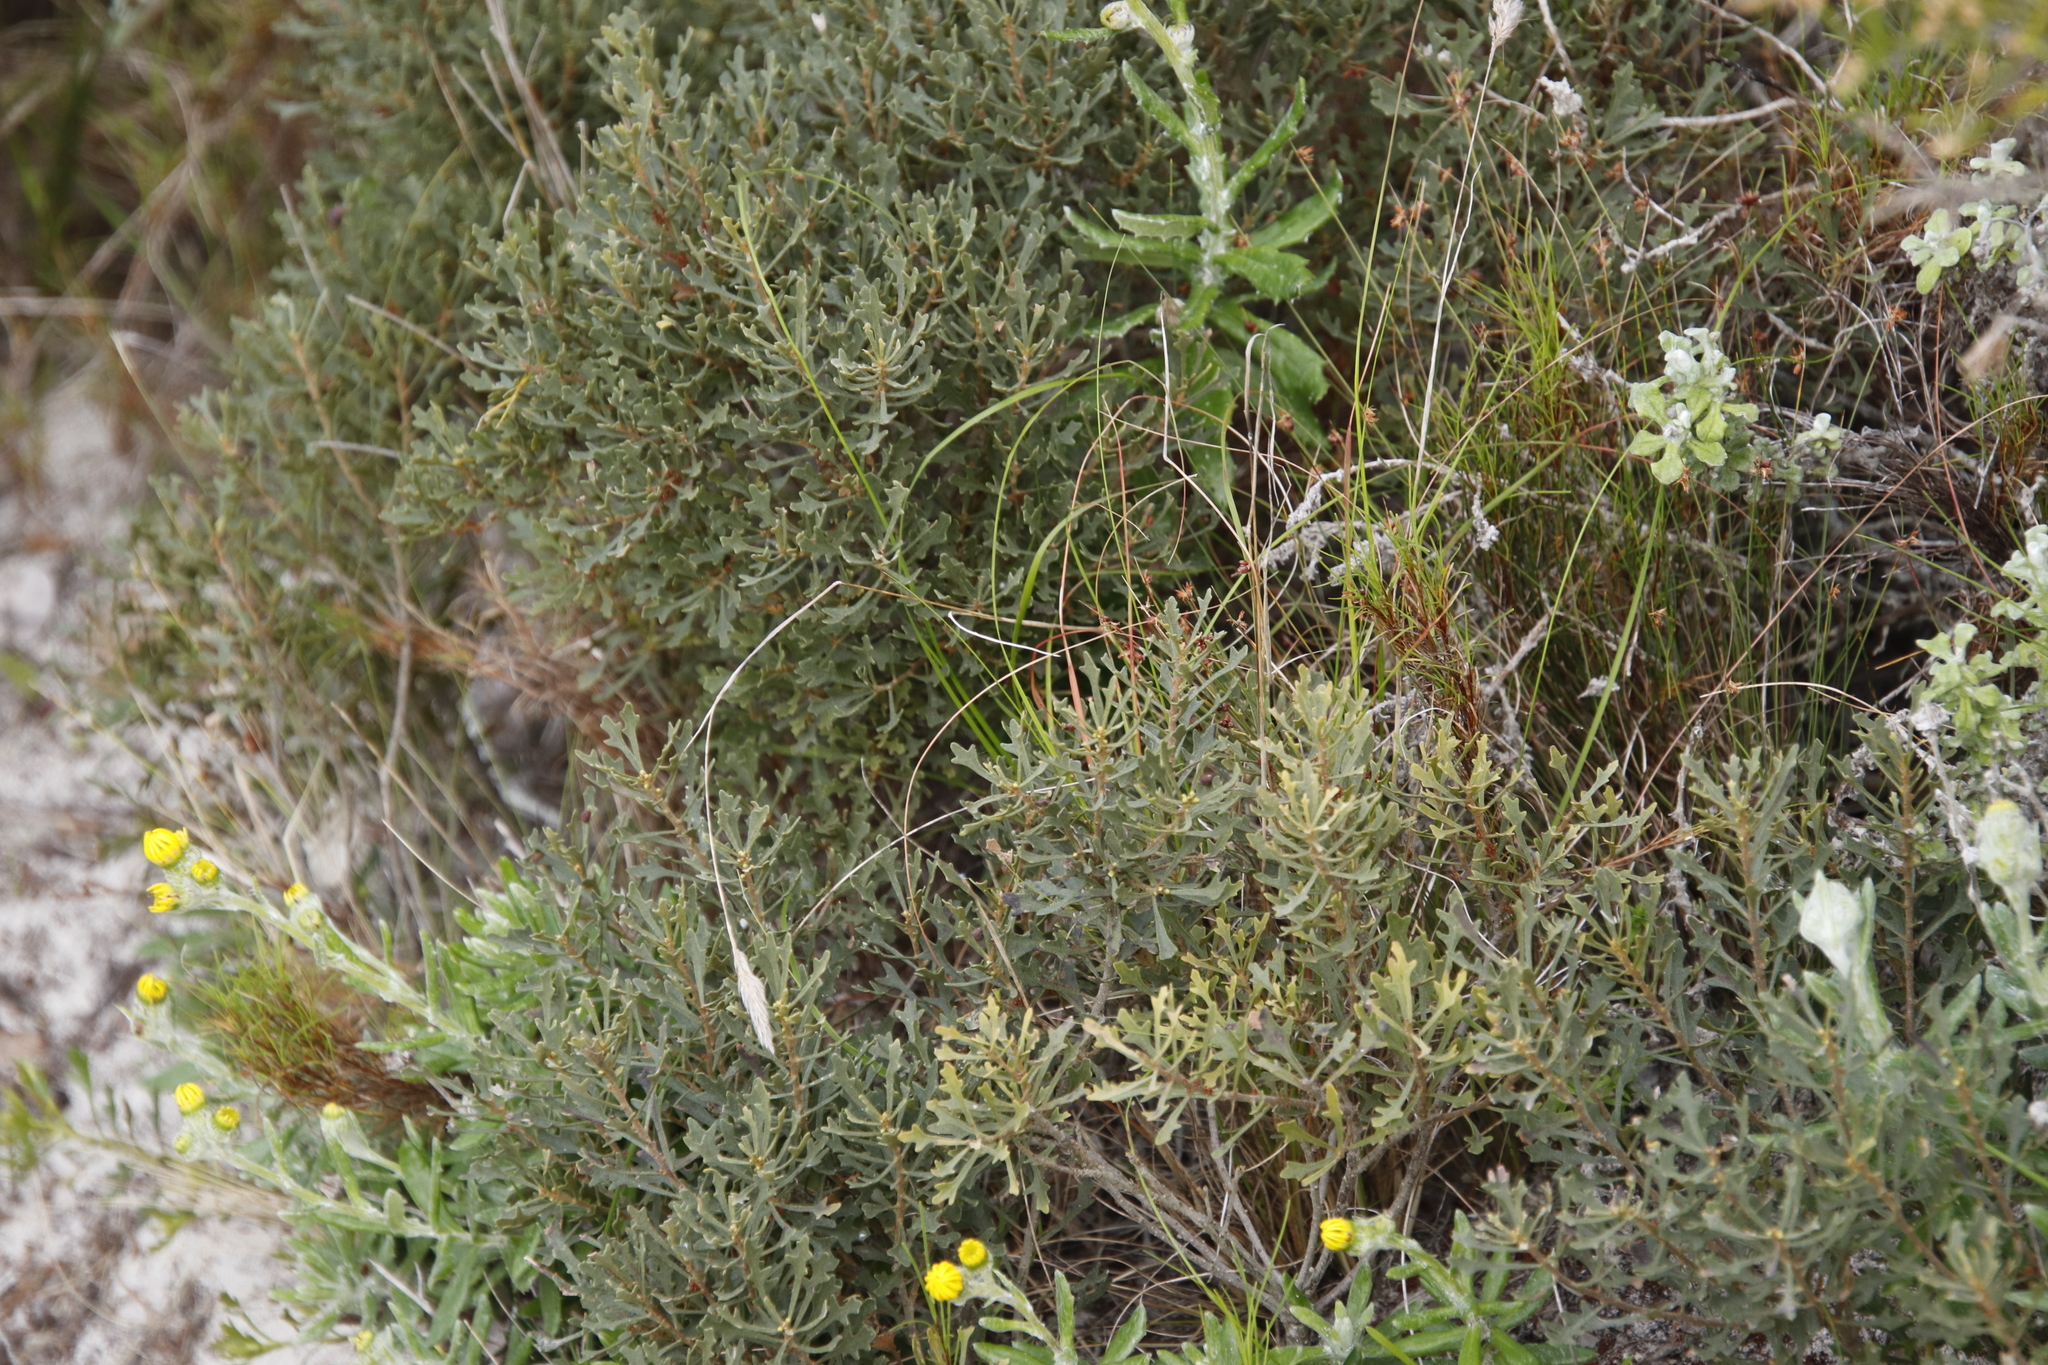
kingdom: Plantae
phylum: Tracheophyta
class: Magnoliopsida
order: Fagales
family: Myricaceae
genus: Morella
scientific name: Morella quercifolia
